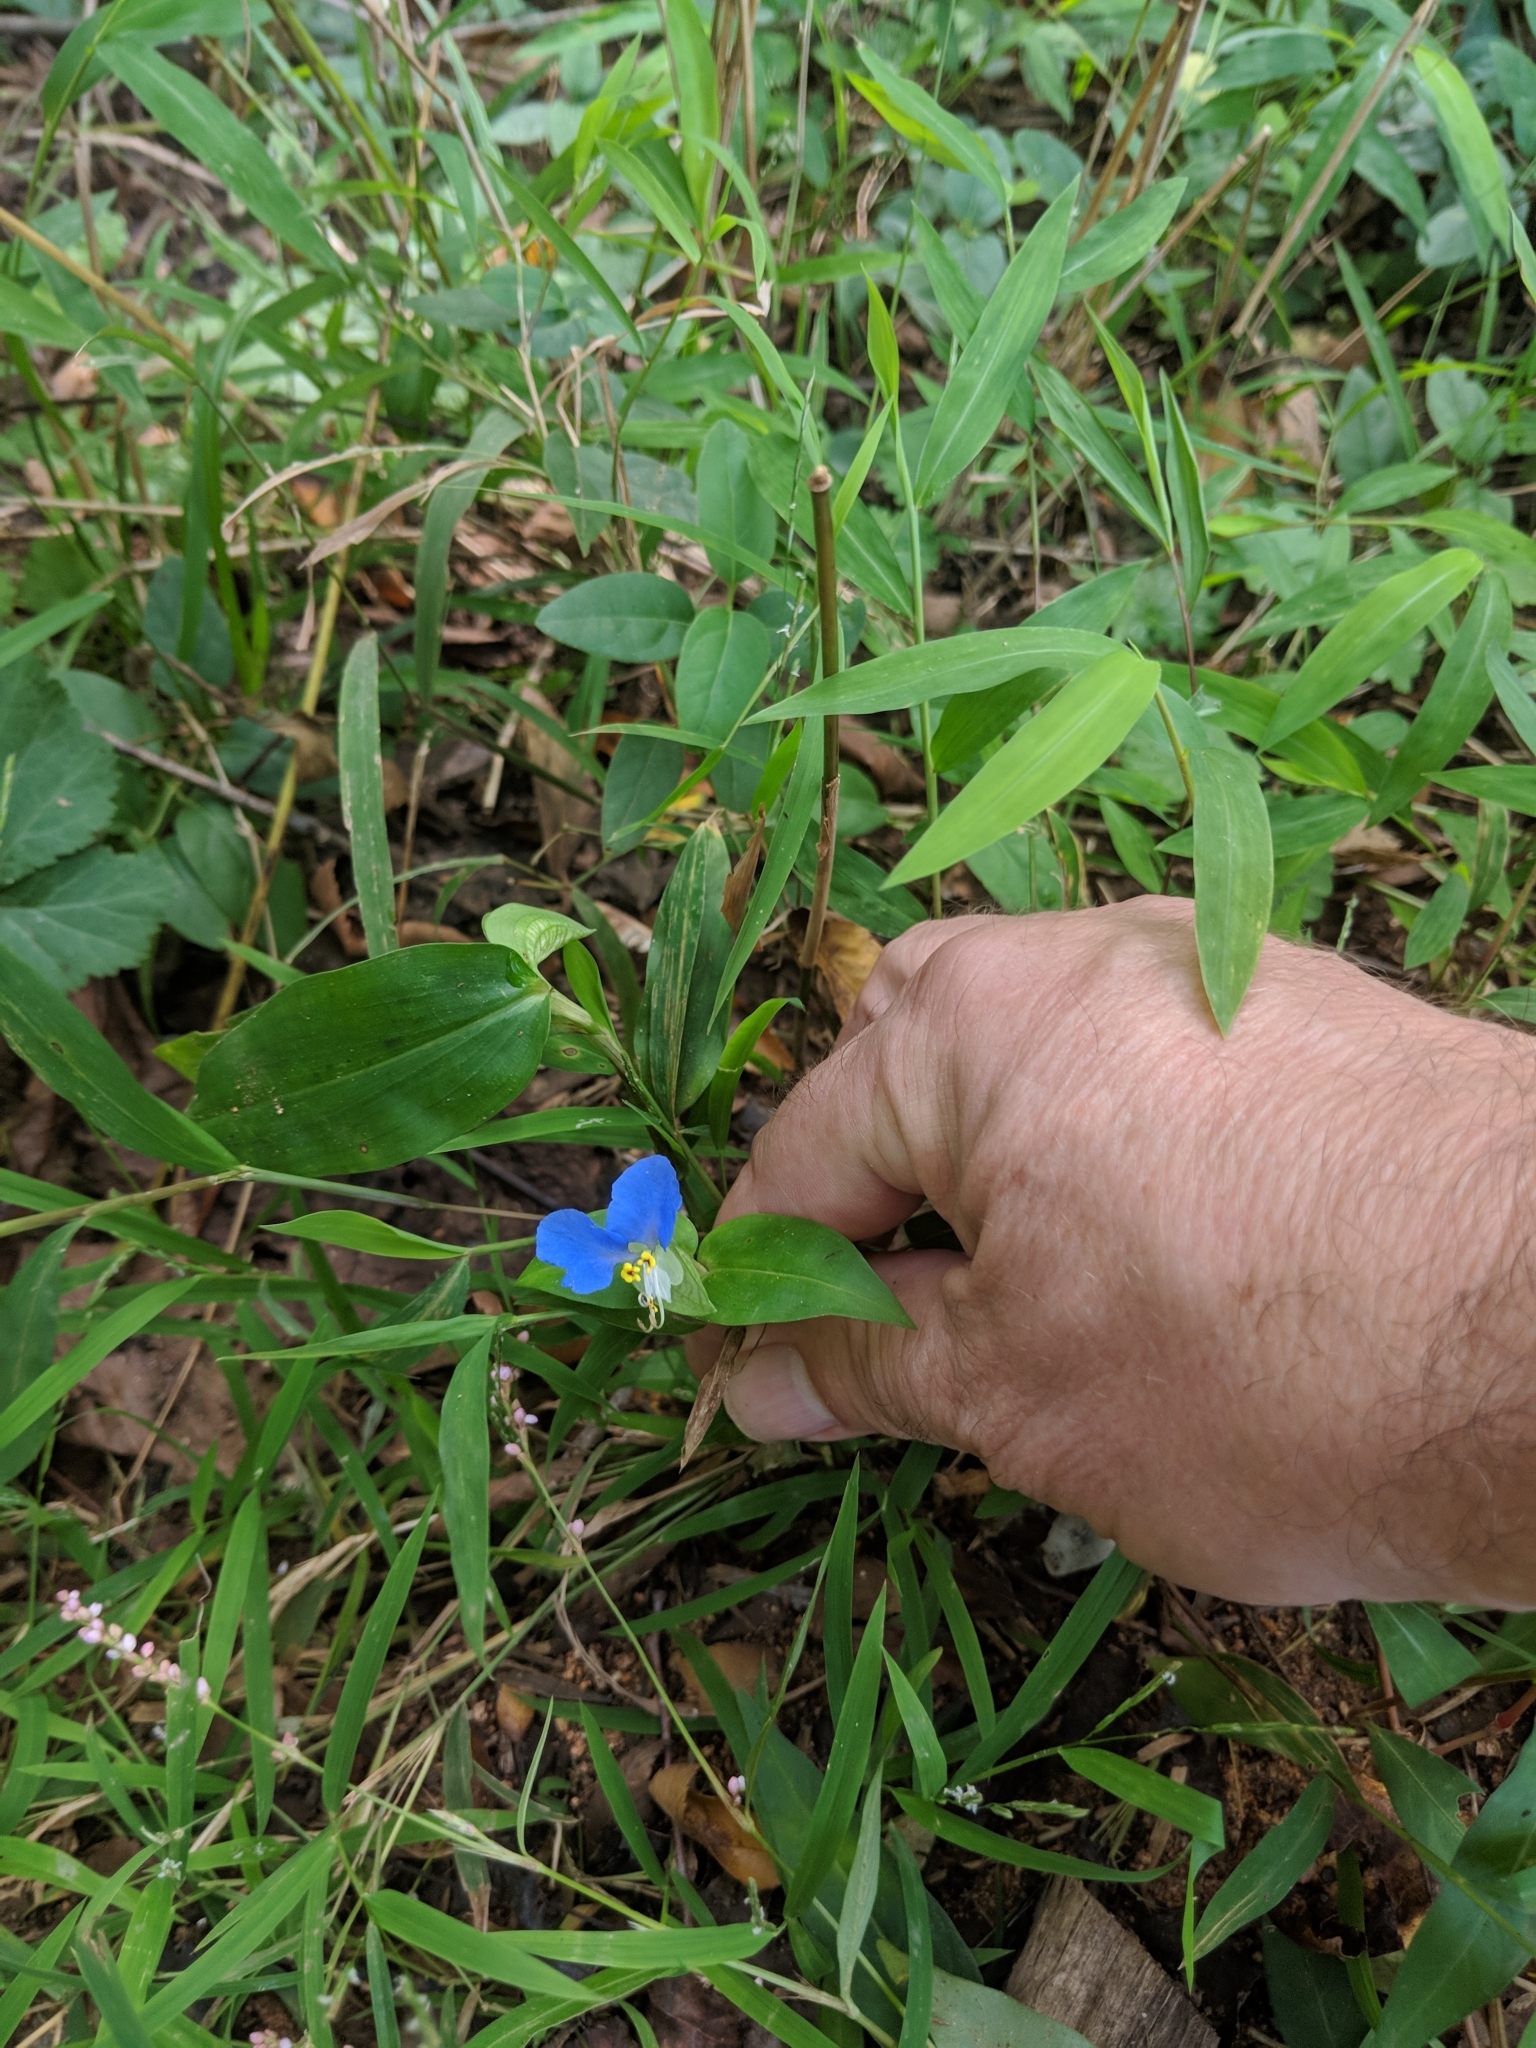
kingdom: Plantae
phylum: Tracheophyta
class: Liliopsida
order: Commelinales
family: Commelinaceae
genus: Commelina
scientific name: Commelina communis
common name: Asiatic dayflower
